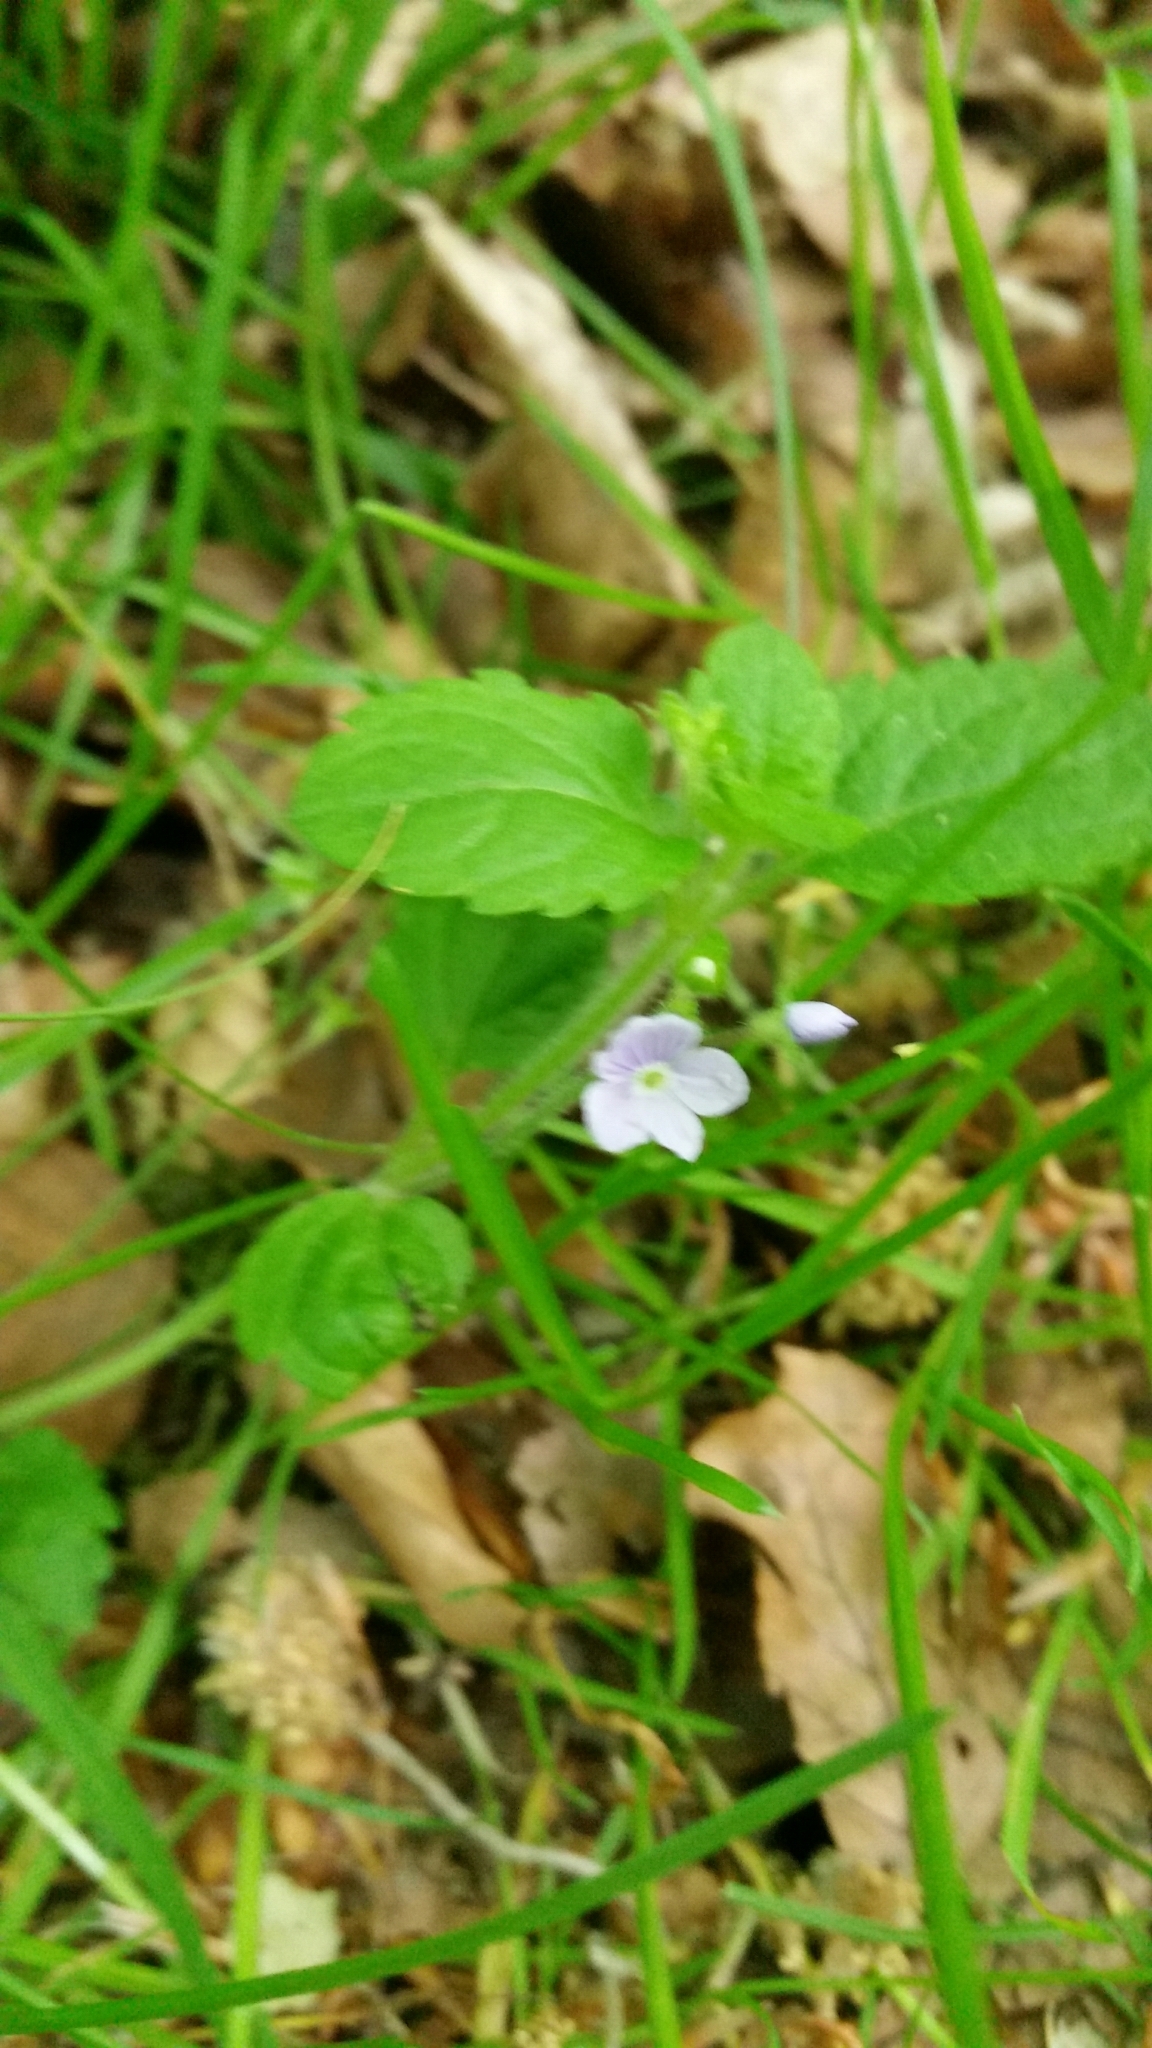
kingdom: Plantae
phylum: Tracheophyta
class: Magnoliopsida
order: Lamiales
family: Plantaginaceae
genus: Veronica
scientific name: Veronica montana
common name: Wood speedwell
